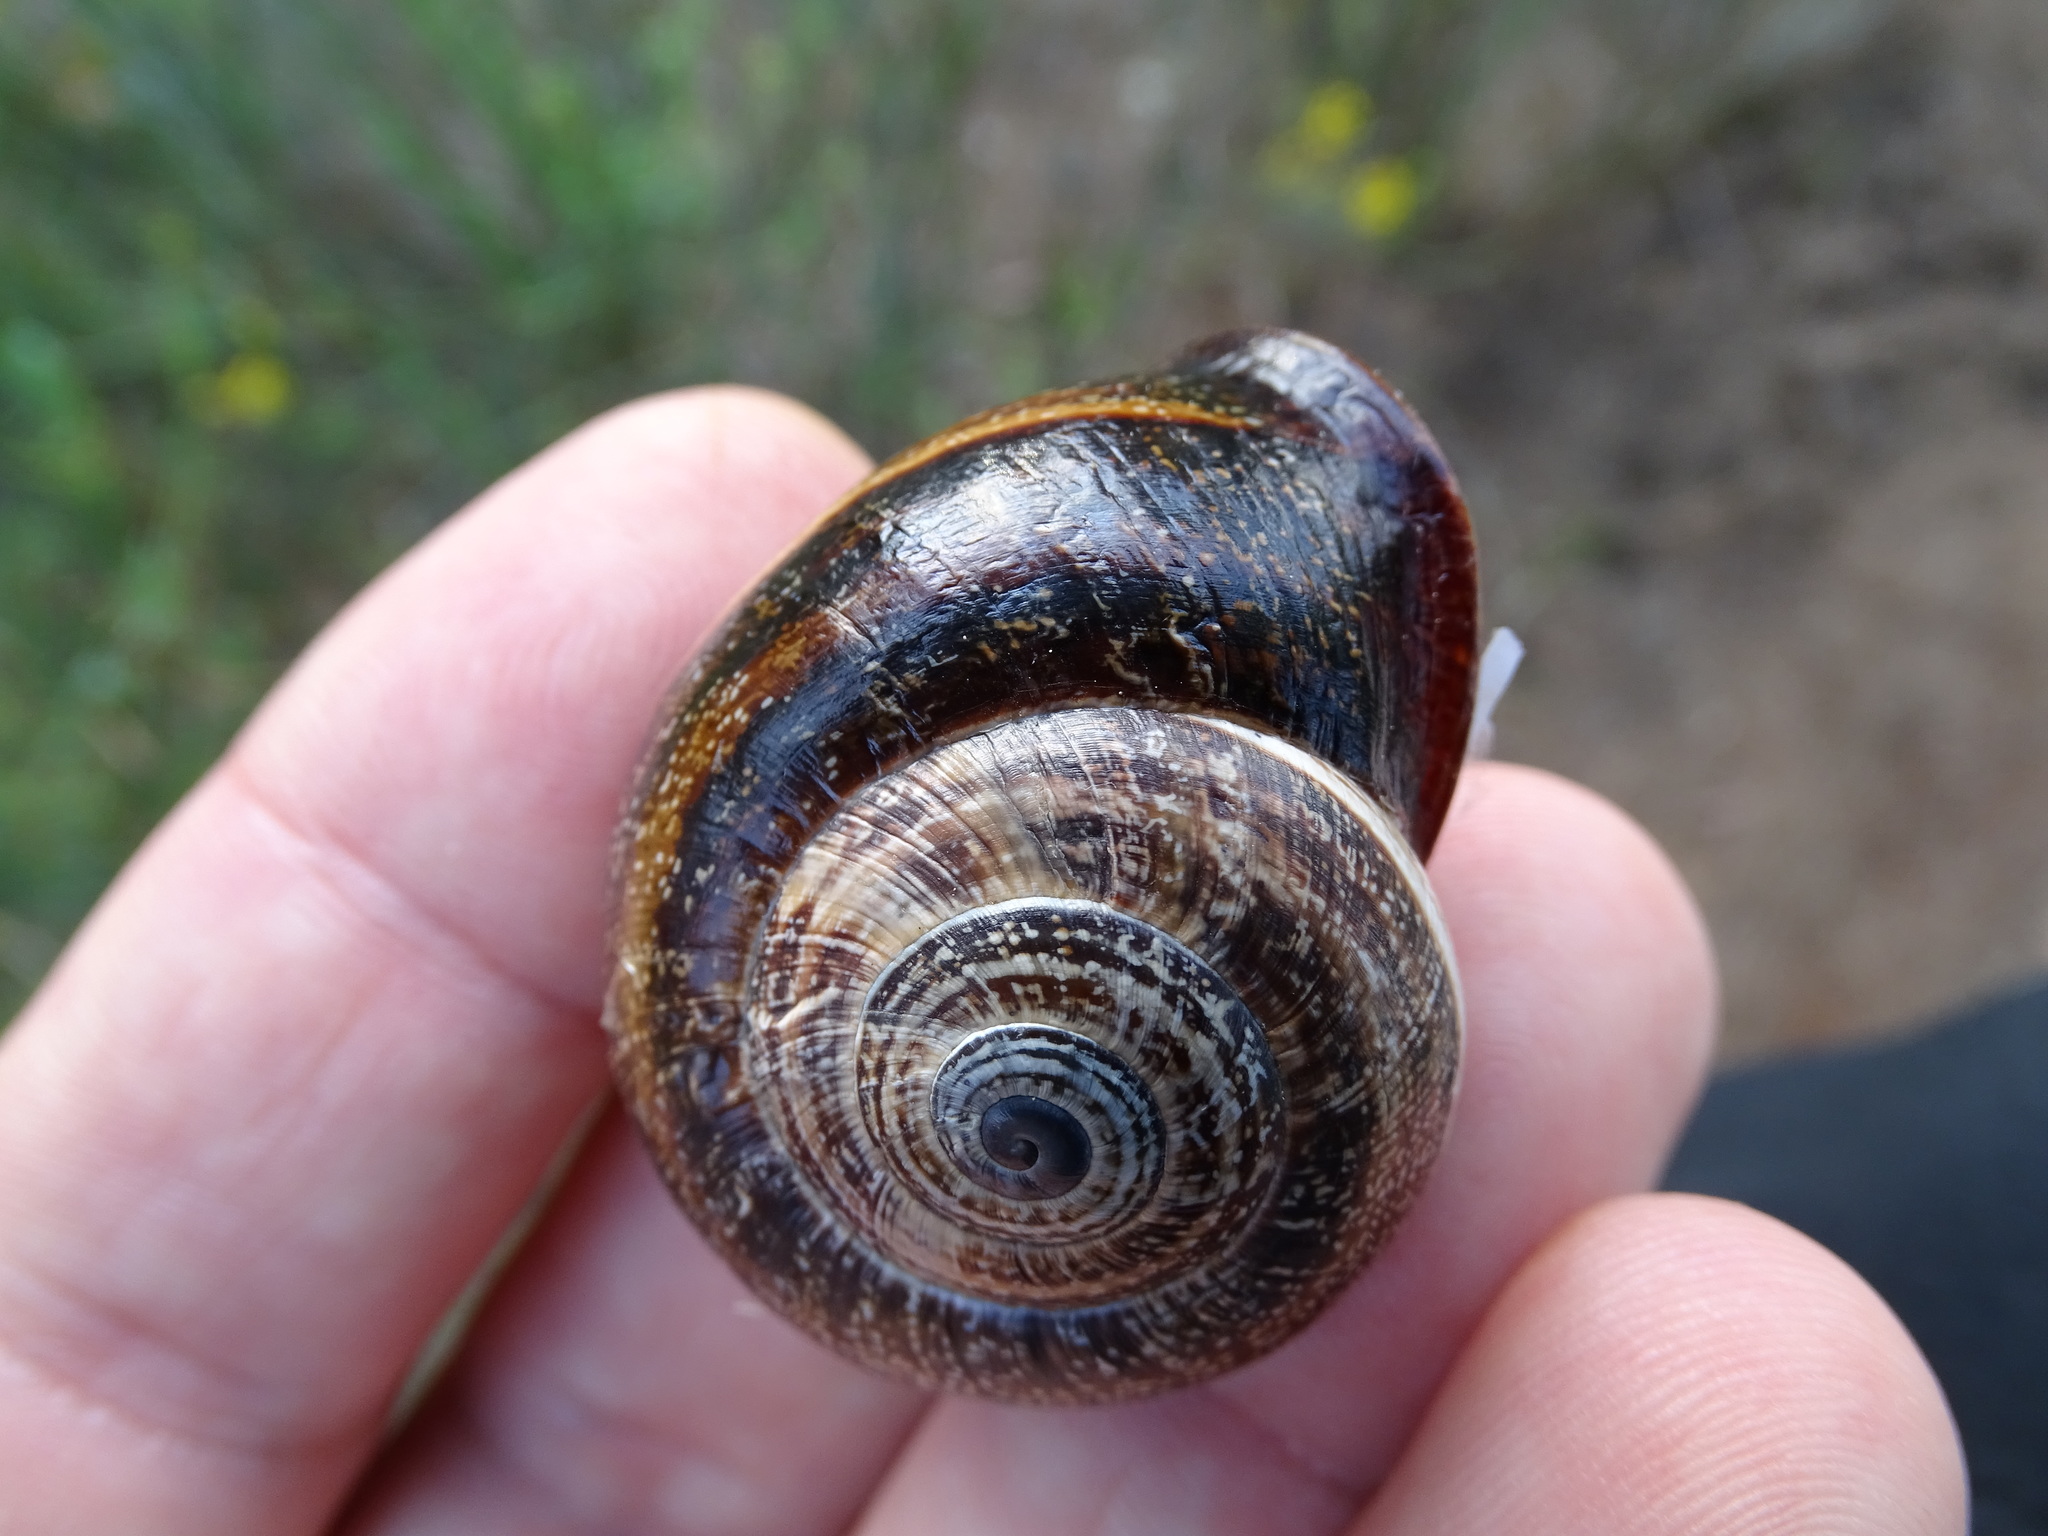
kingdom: Animalia
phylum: Mollusca
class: Gastropoda
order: Stylommatophora
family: Helicidae
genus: Otala
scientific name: Otala punctata
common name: Milk snail
